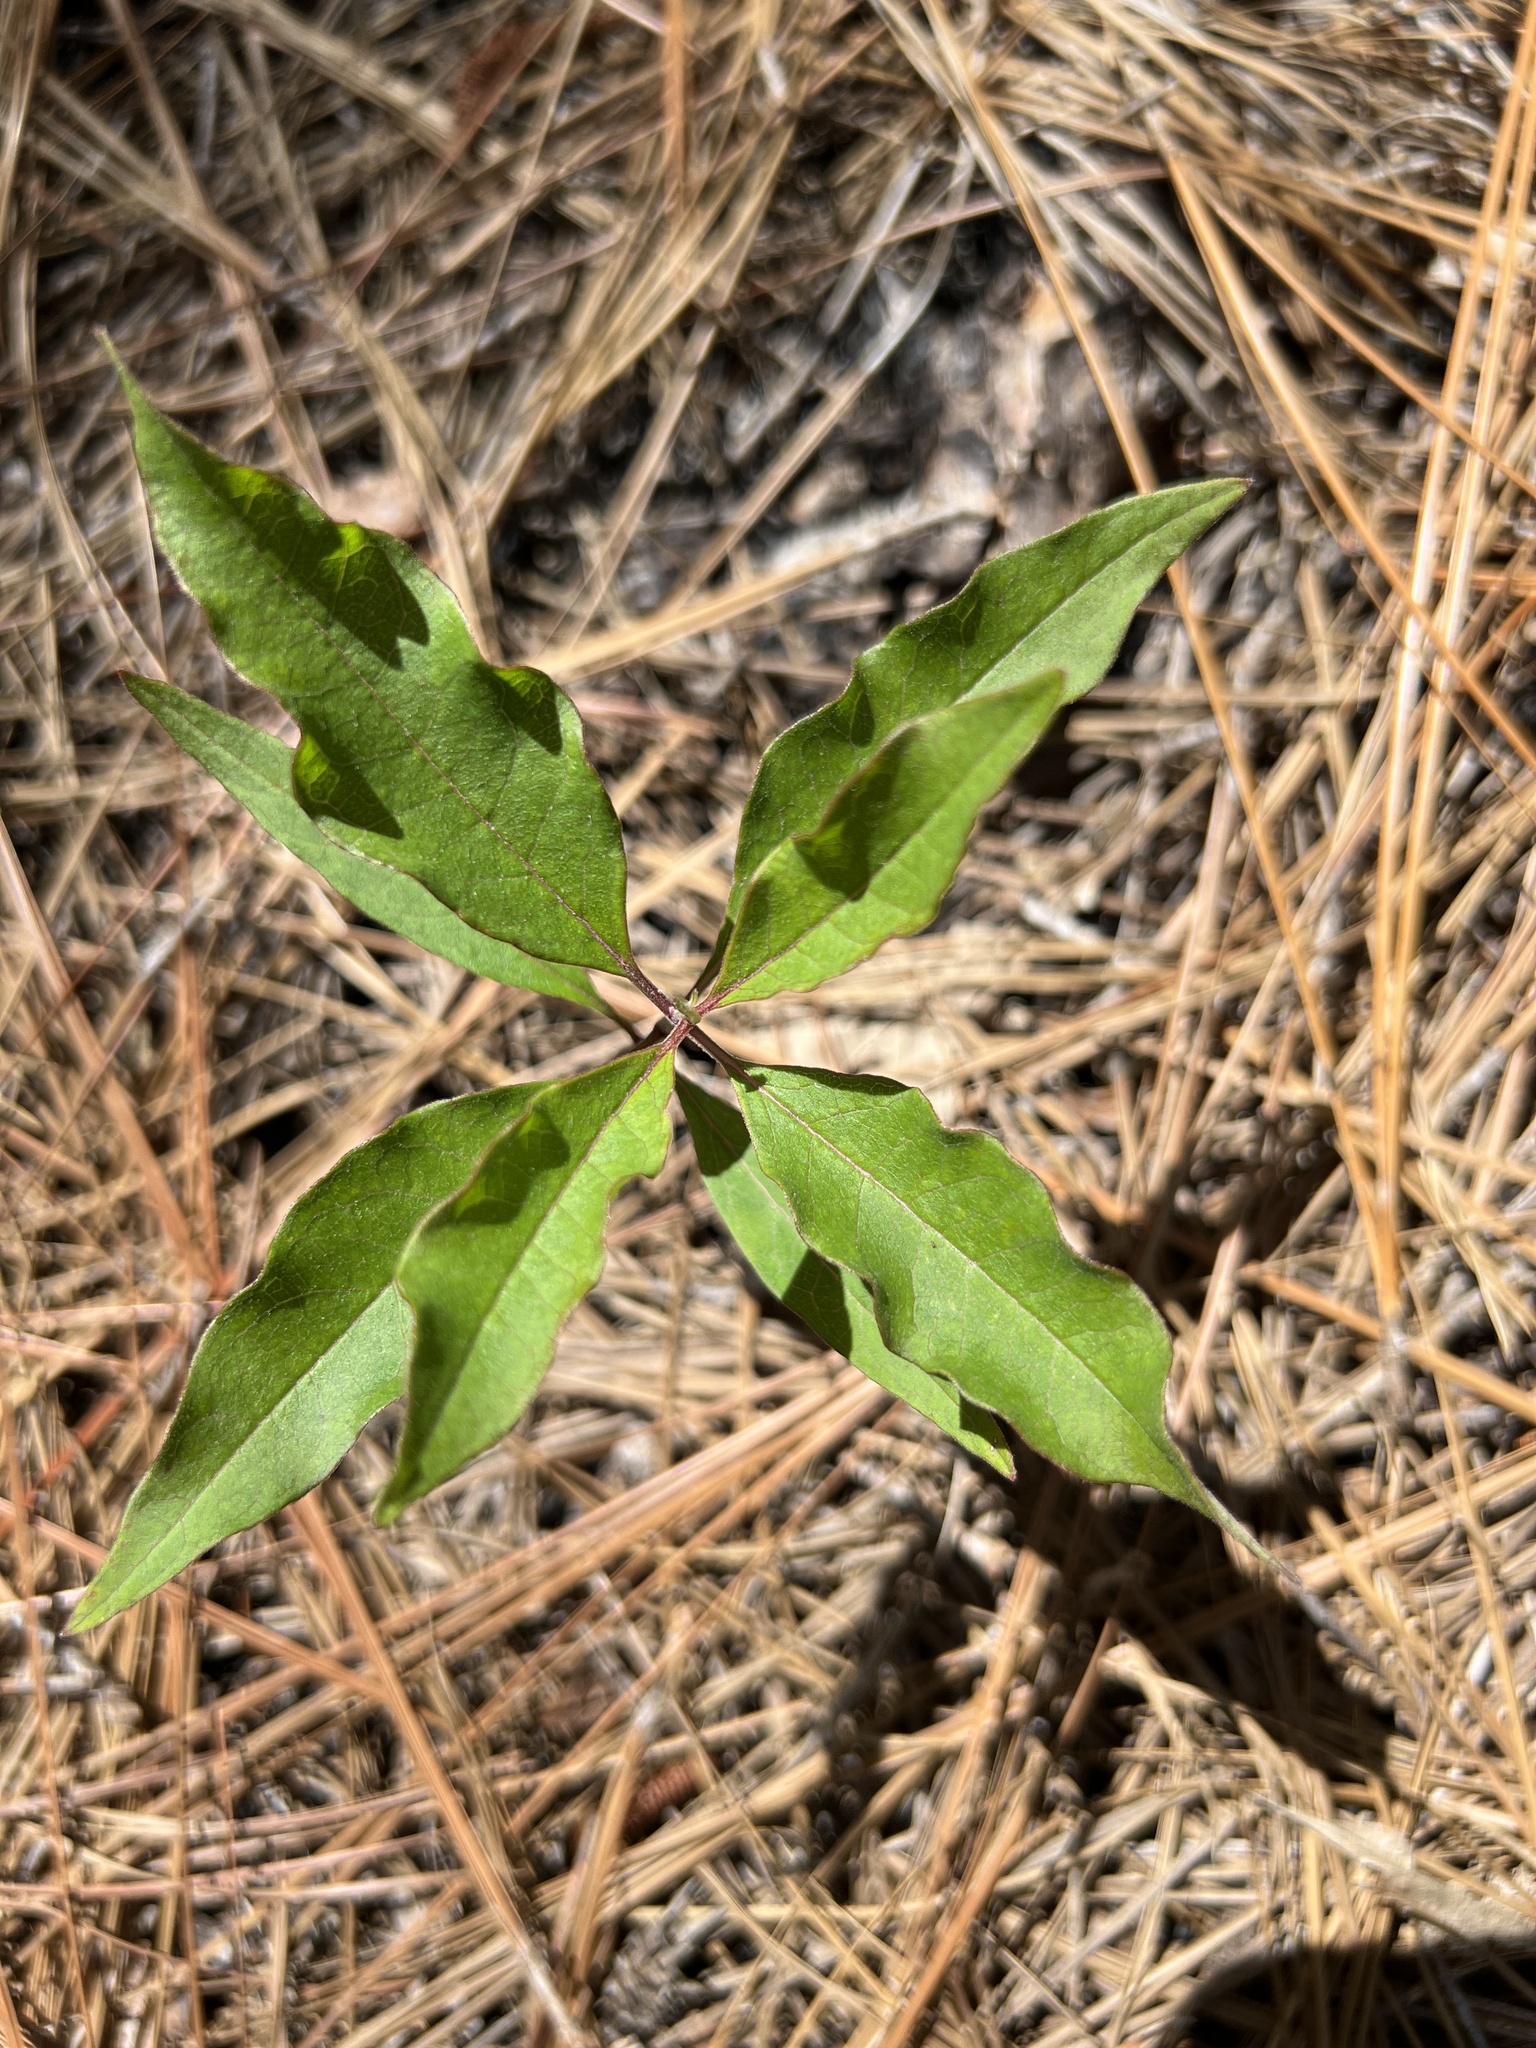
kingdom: Plantae
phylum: Tracheophyta
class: Magnoliopsida
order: Gentianales
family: Apocynaceae
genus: Asclepias
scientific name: Asclepias tomentosa
